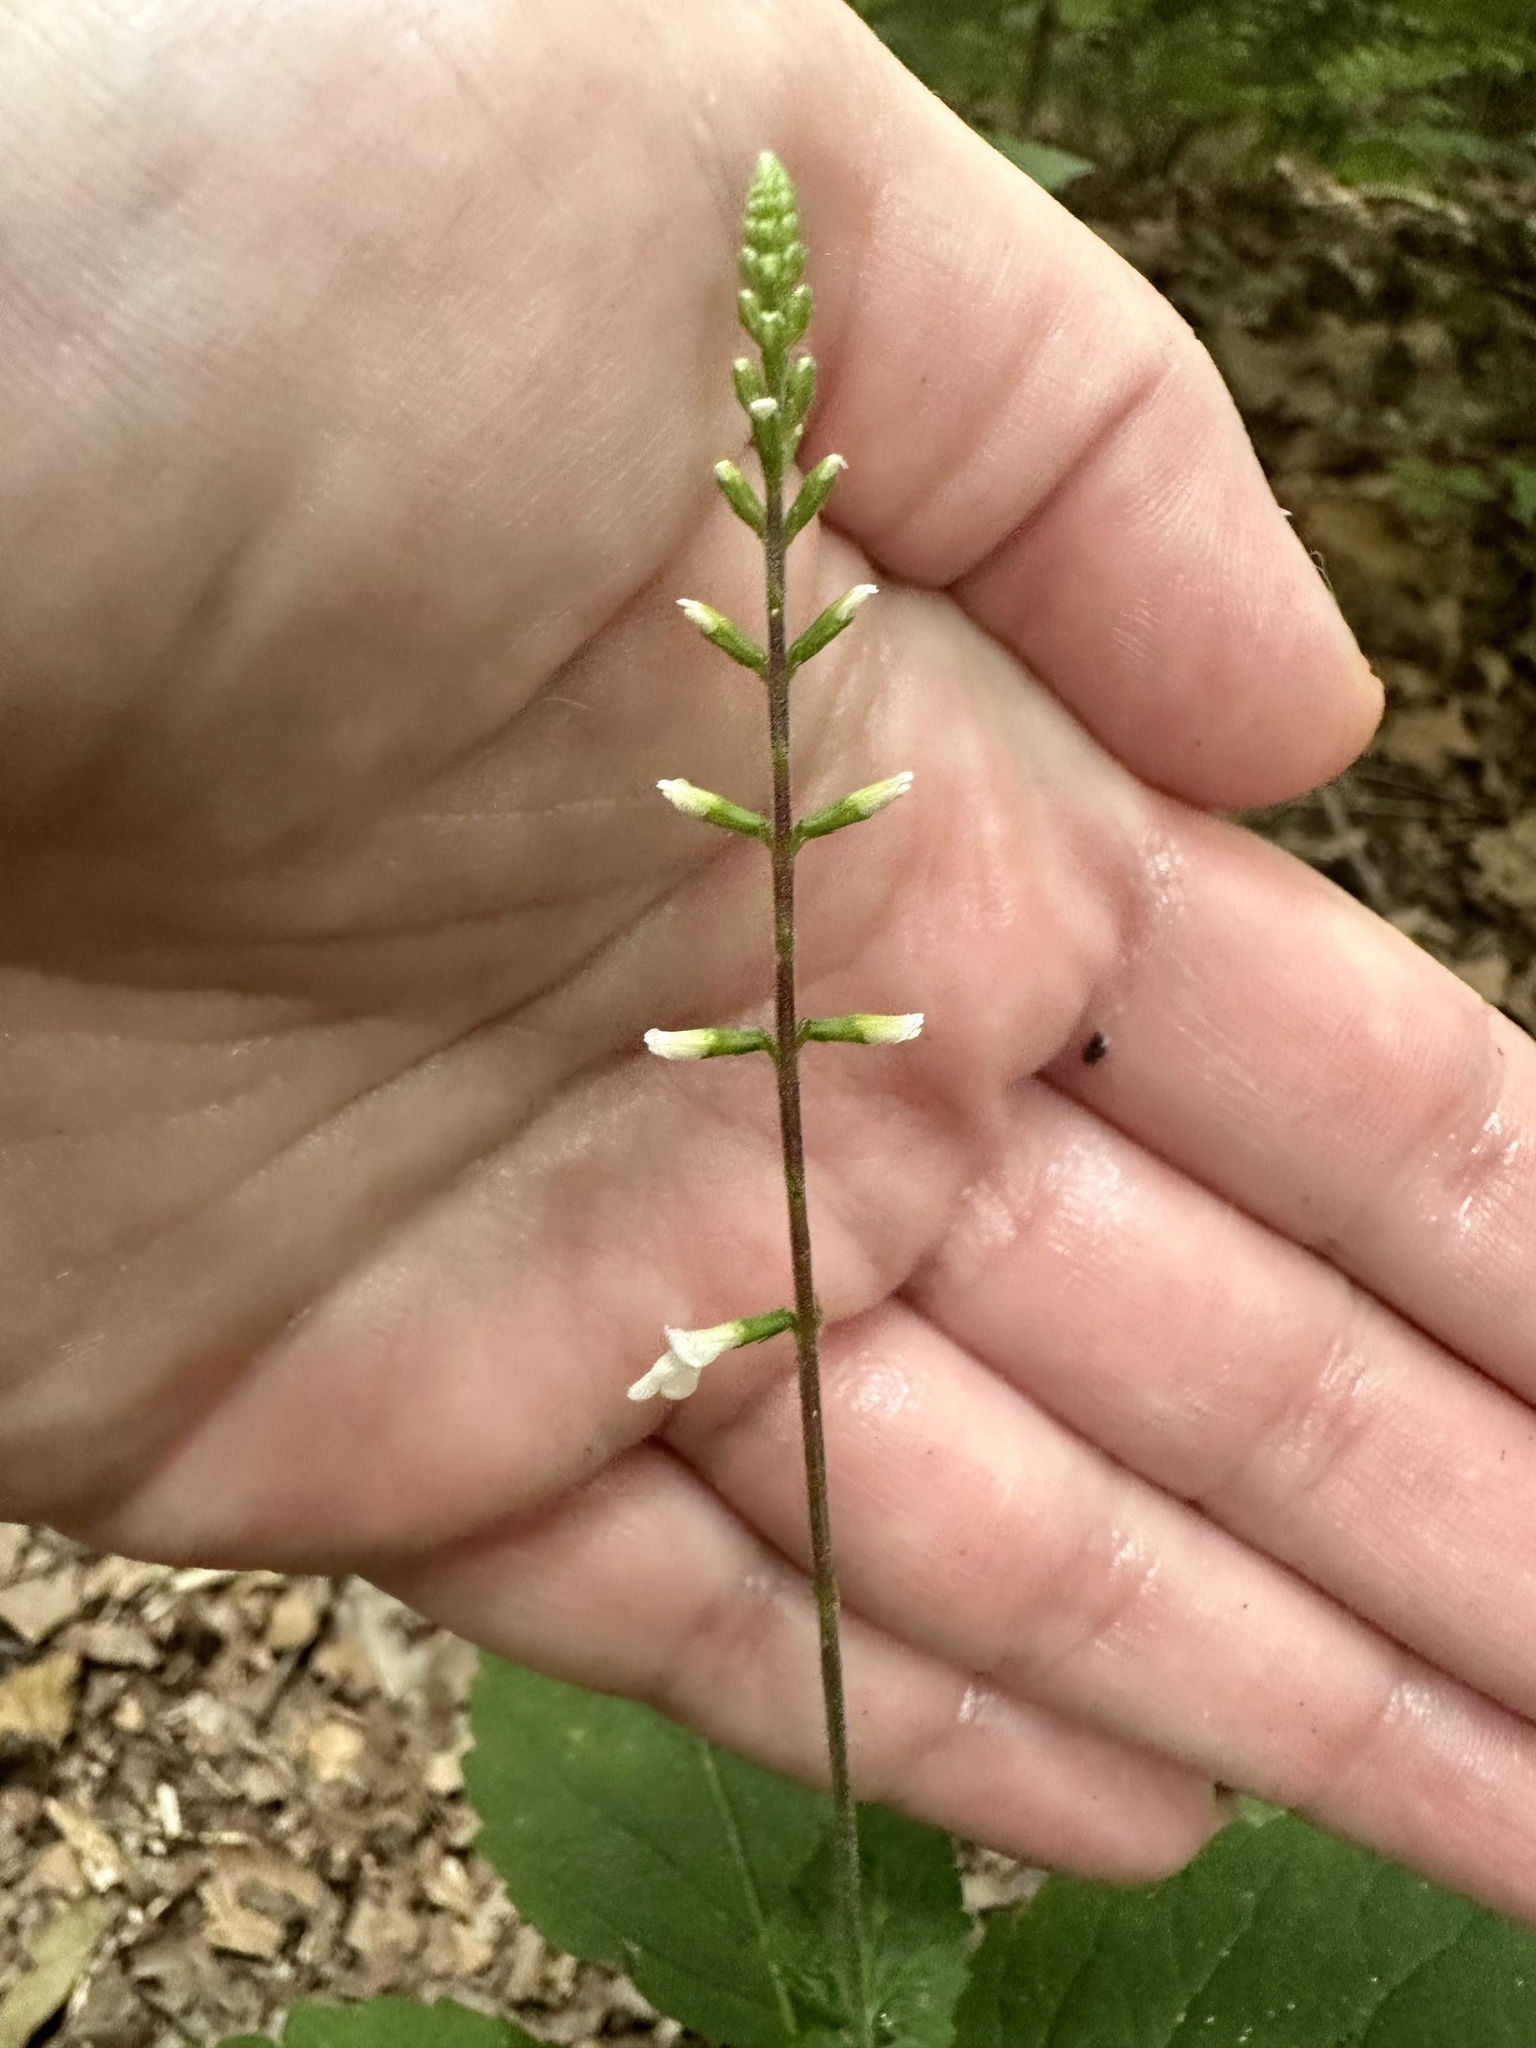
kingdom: Plantae
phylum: Tracheophyta
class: Magnoliopsida
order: Lamiales
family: Phrymaceae
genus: Phryma
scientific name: Phryma leptostachya
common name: American lopseed
